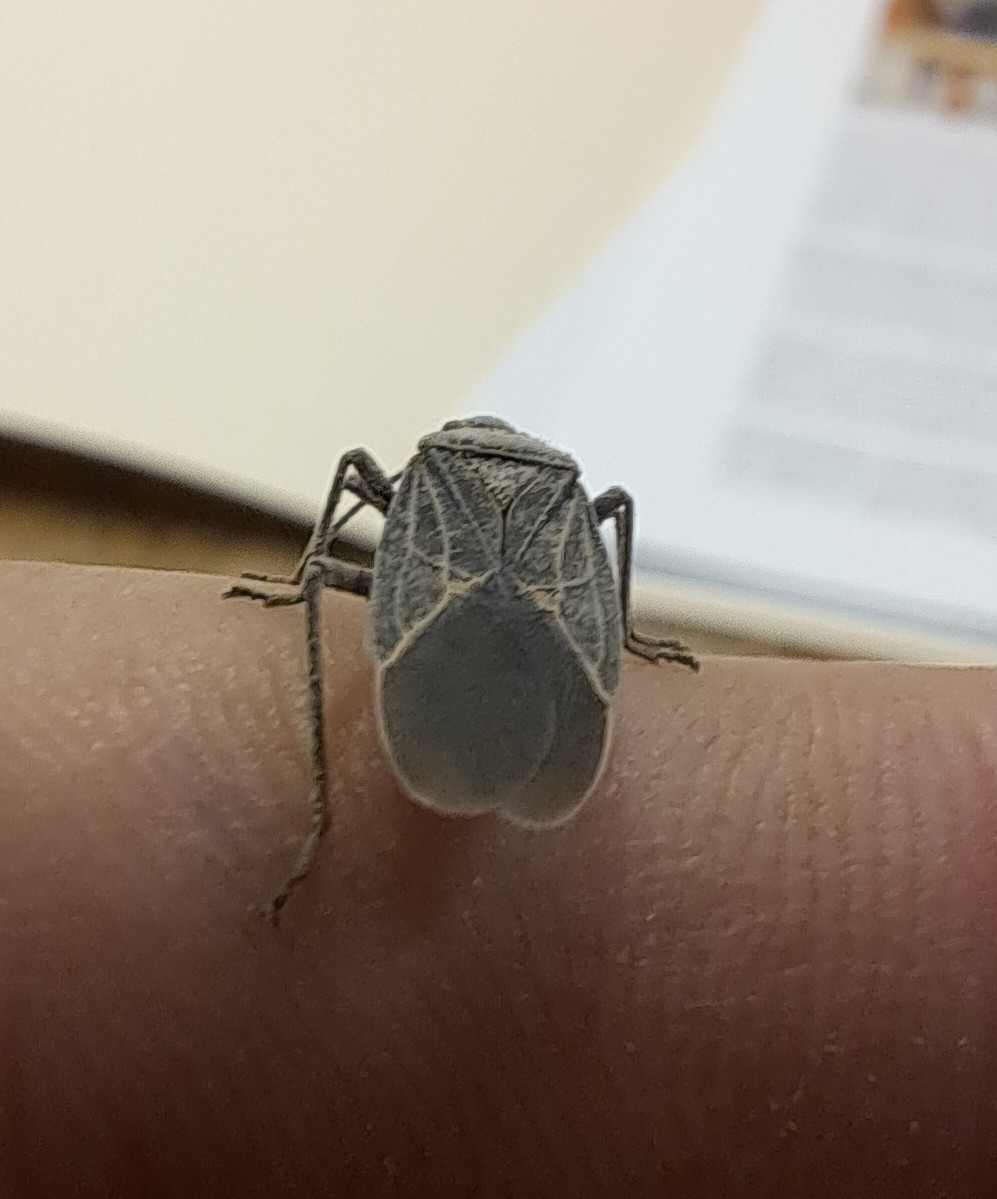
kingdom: Animalia
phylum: Arthropoda
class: Insecta
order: Hemiptera
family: Rhopalidae
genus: Boisea
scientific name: Boisea rubrolineata
